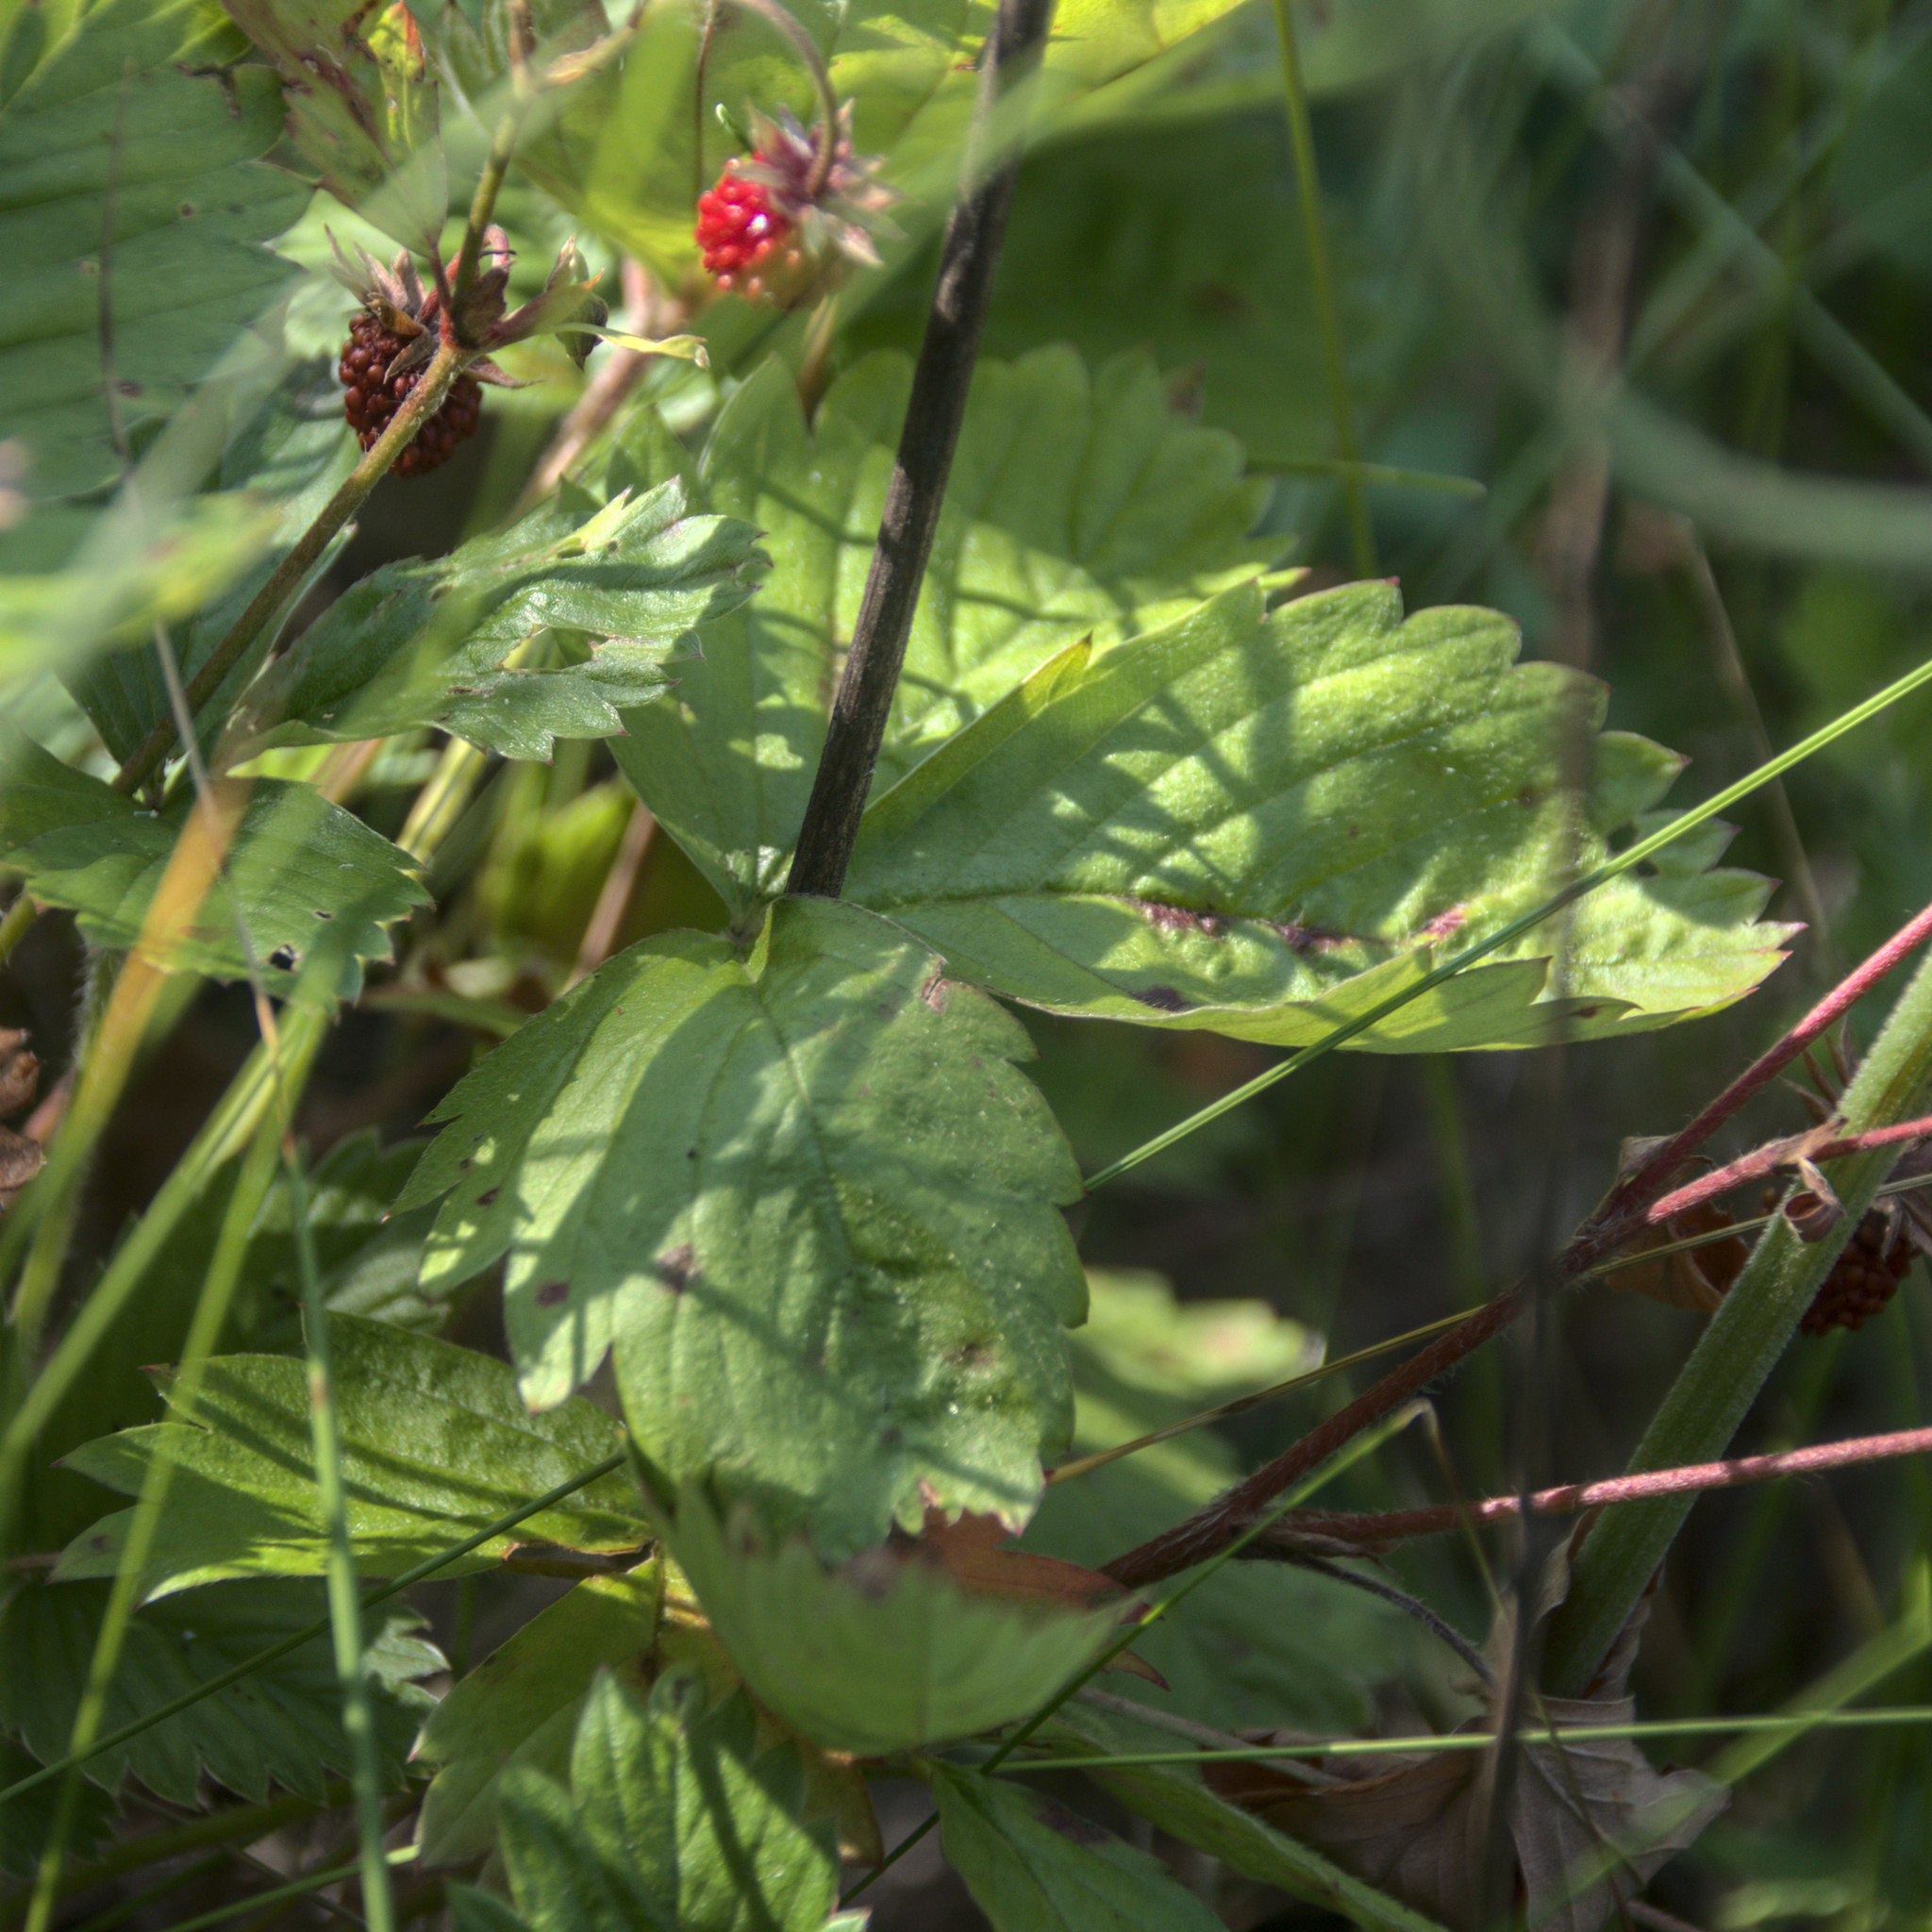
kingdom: Plantae
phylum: Tracheophyta
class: Magnoliopsida
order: Rosales
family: Rosaceae
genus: Fragaria
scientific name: Fragaria vesca
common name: Wild strawberry
